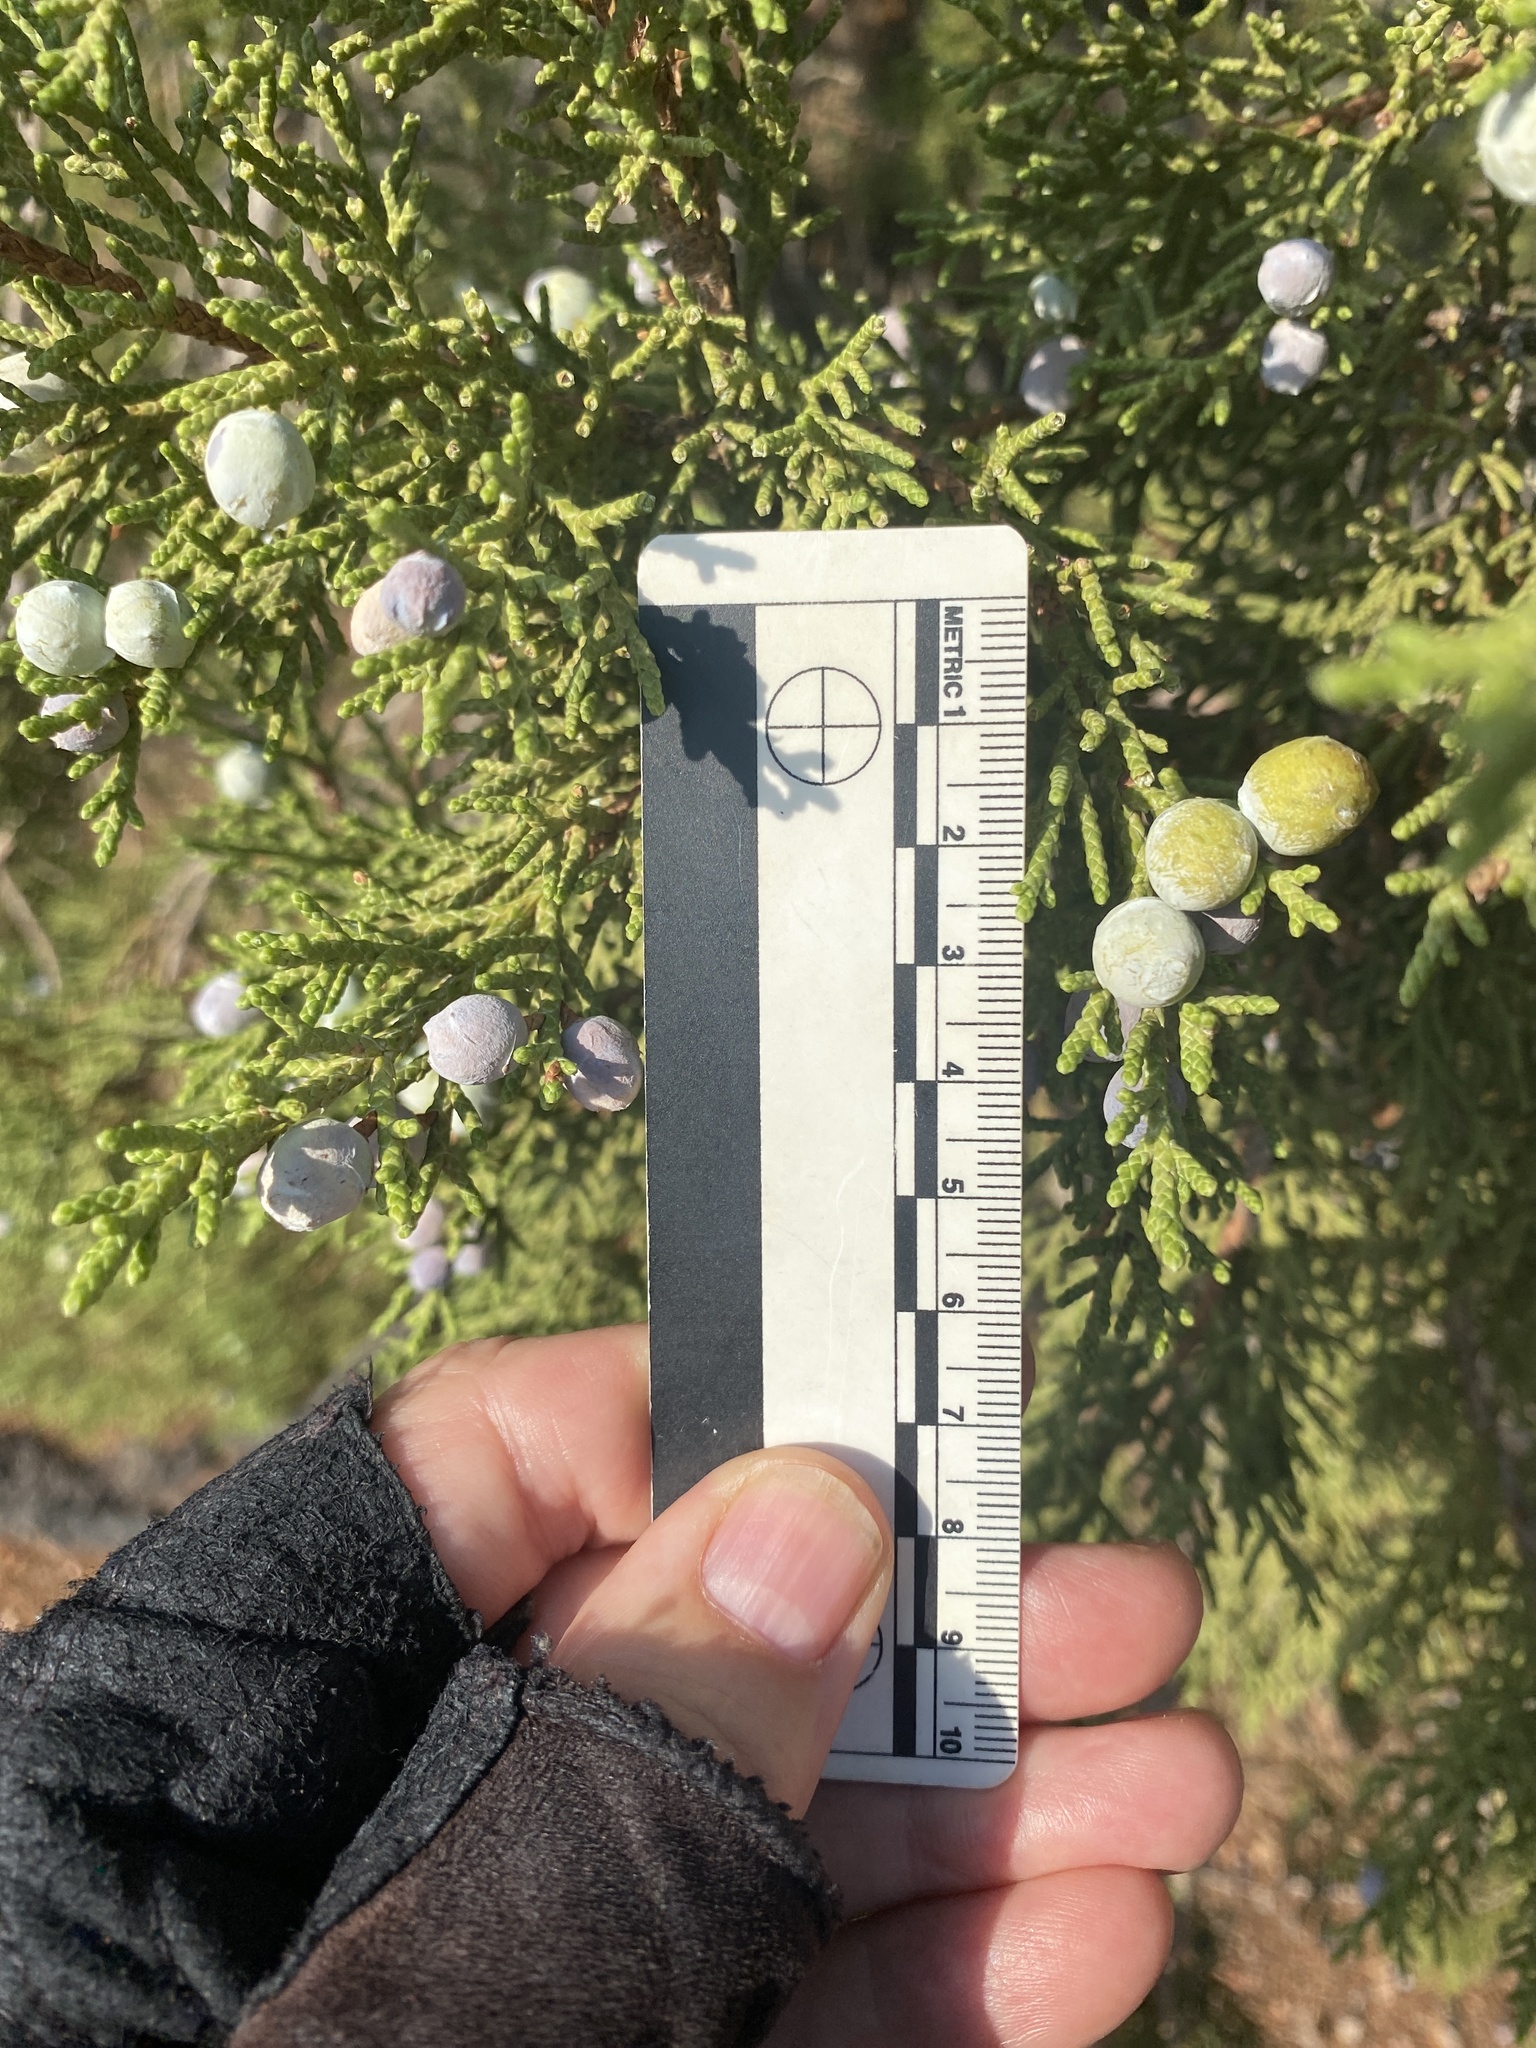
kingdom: Plantae
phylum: Tracheophyta
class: Pinopsida
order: Pinales
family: Cupressaceae
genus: Juniperus
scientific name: Juniperus osteosperma
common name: Utah juniper
